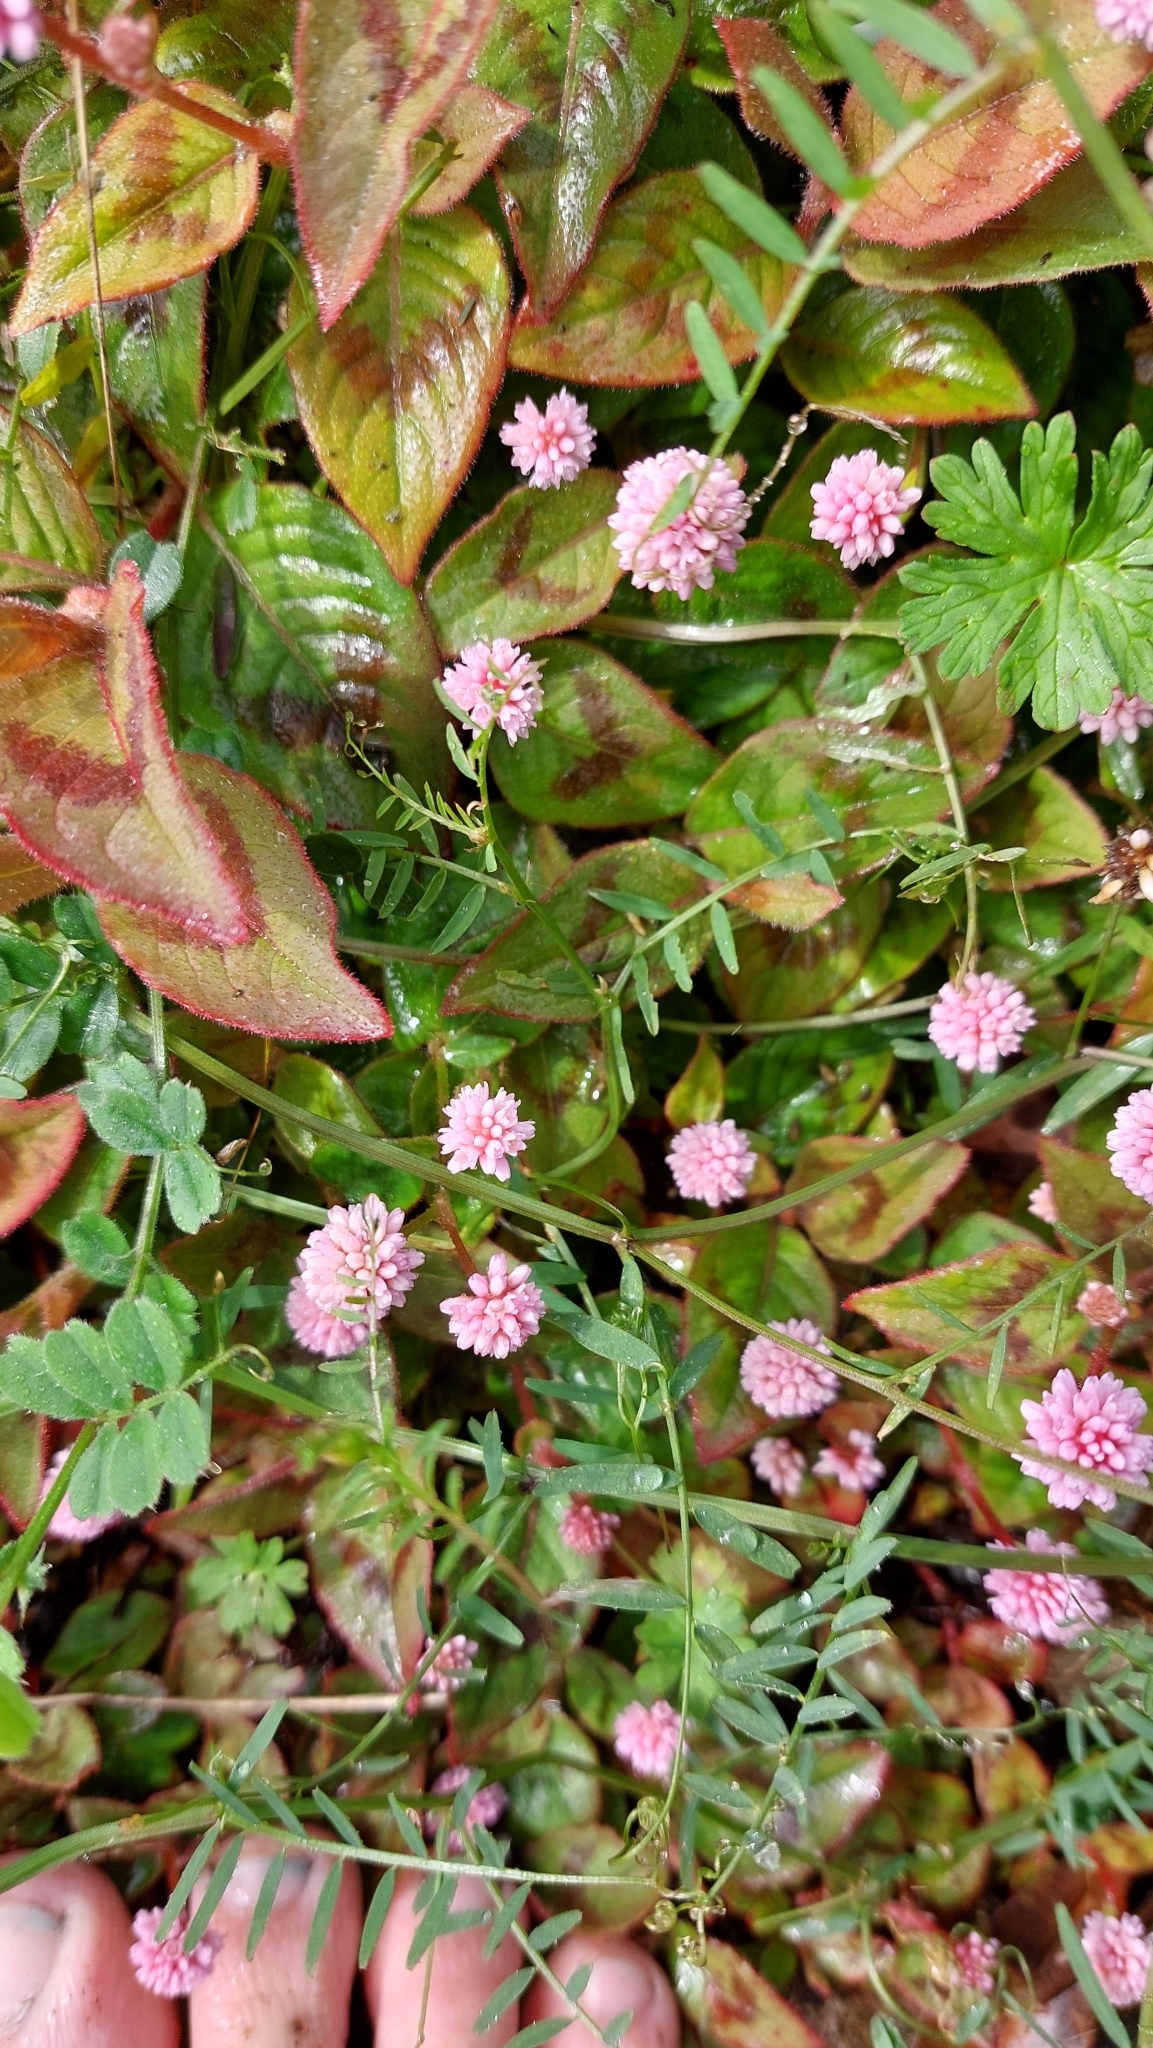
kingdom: Plantae
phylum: Tracheophyta
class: Magnoliopsida
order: Caryophyllales
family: Polygonaceae
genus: Persicaria
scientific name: Persicaria capitata
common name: Pinkhead smartweed
